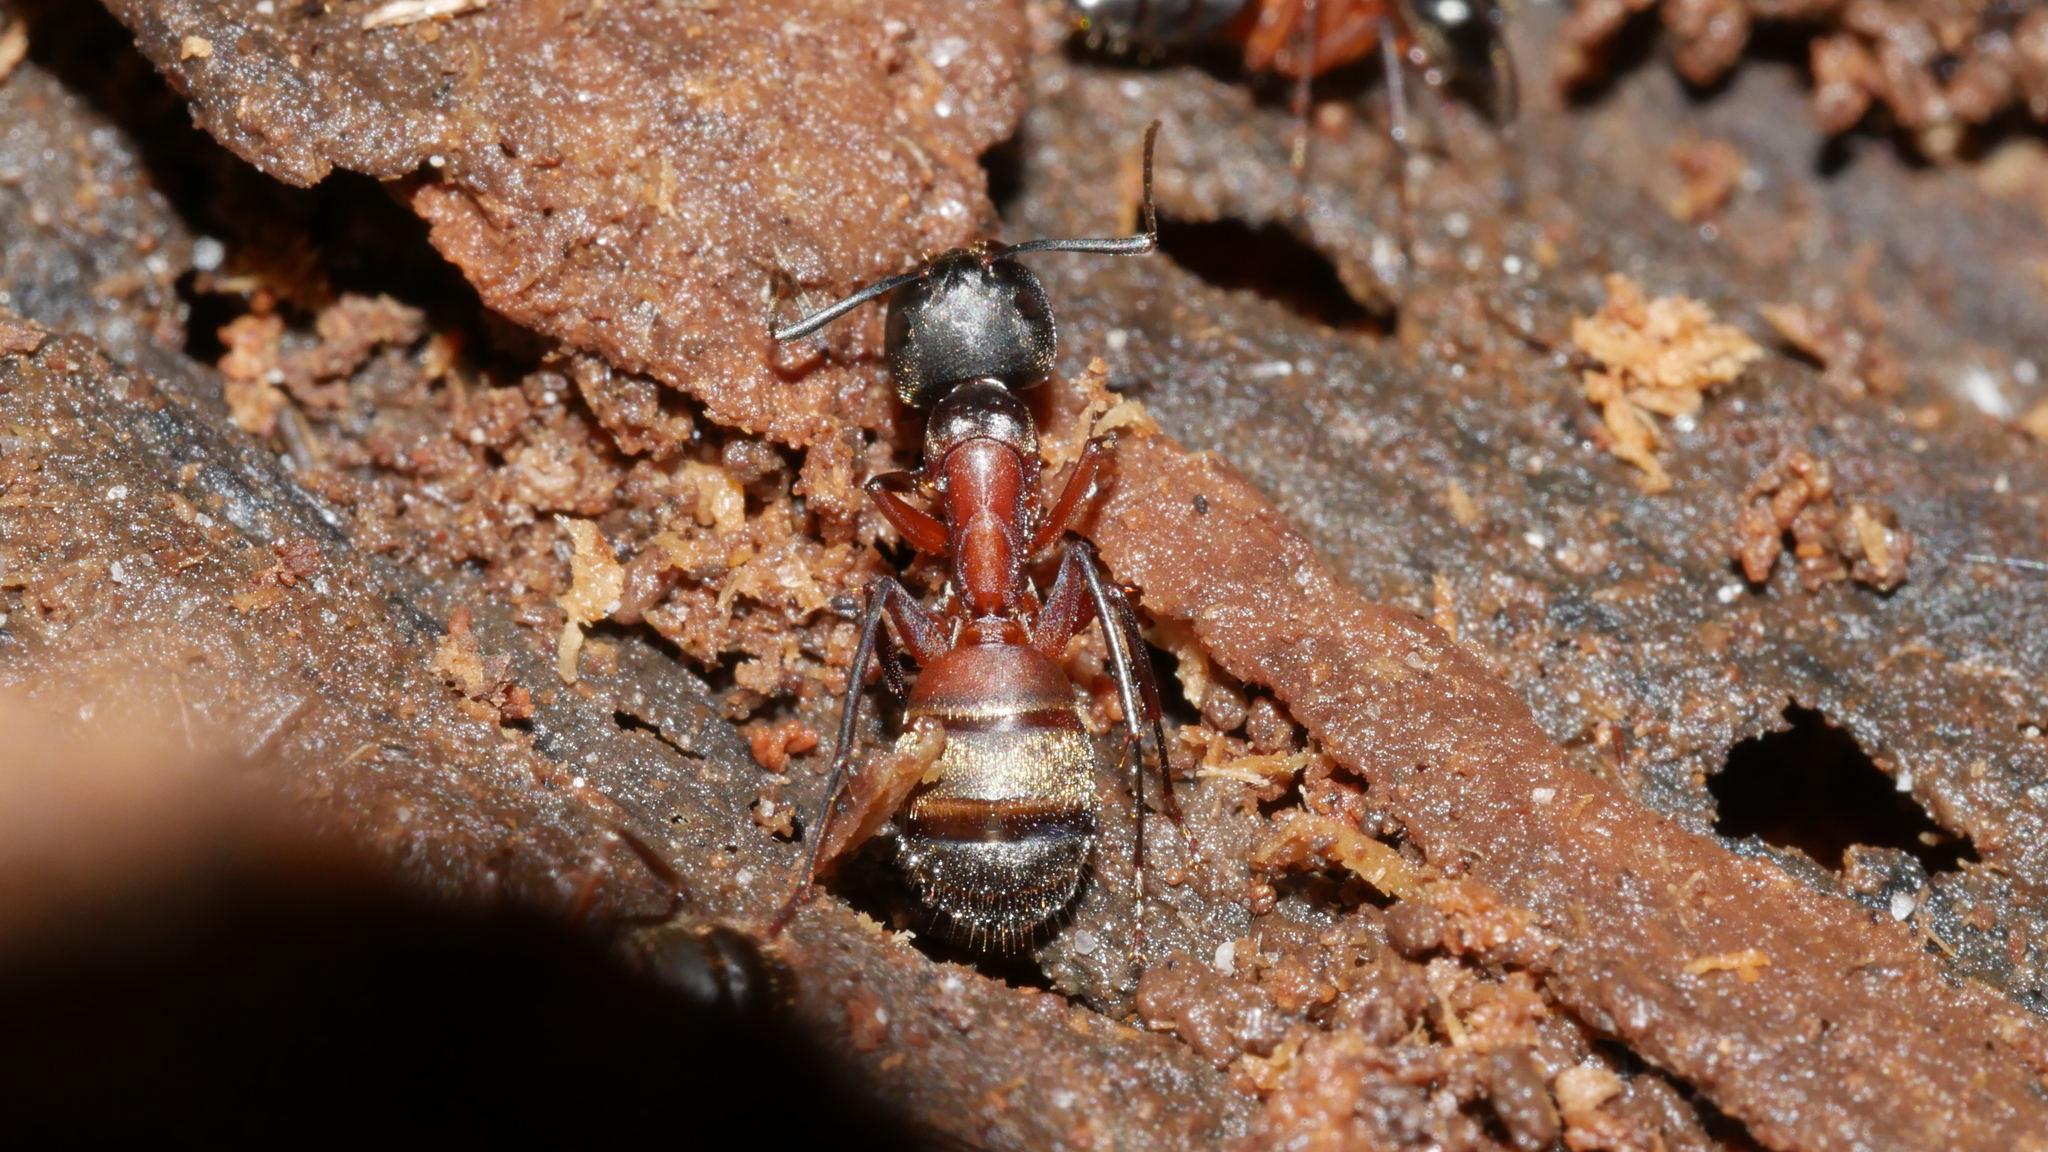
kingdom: Animalia
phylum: Arthropoda
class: Insecta
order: Hymenoptera
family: Formicidae
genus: Camponotus
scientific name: Camponotus chromaiodes
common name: Red carpenter ant
